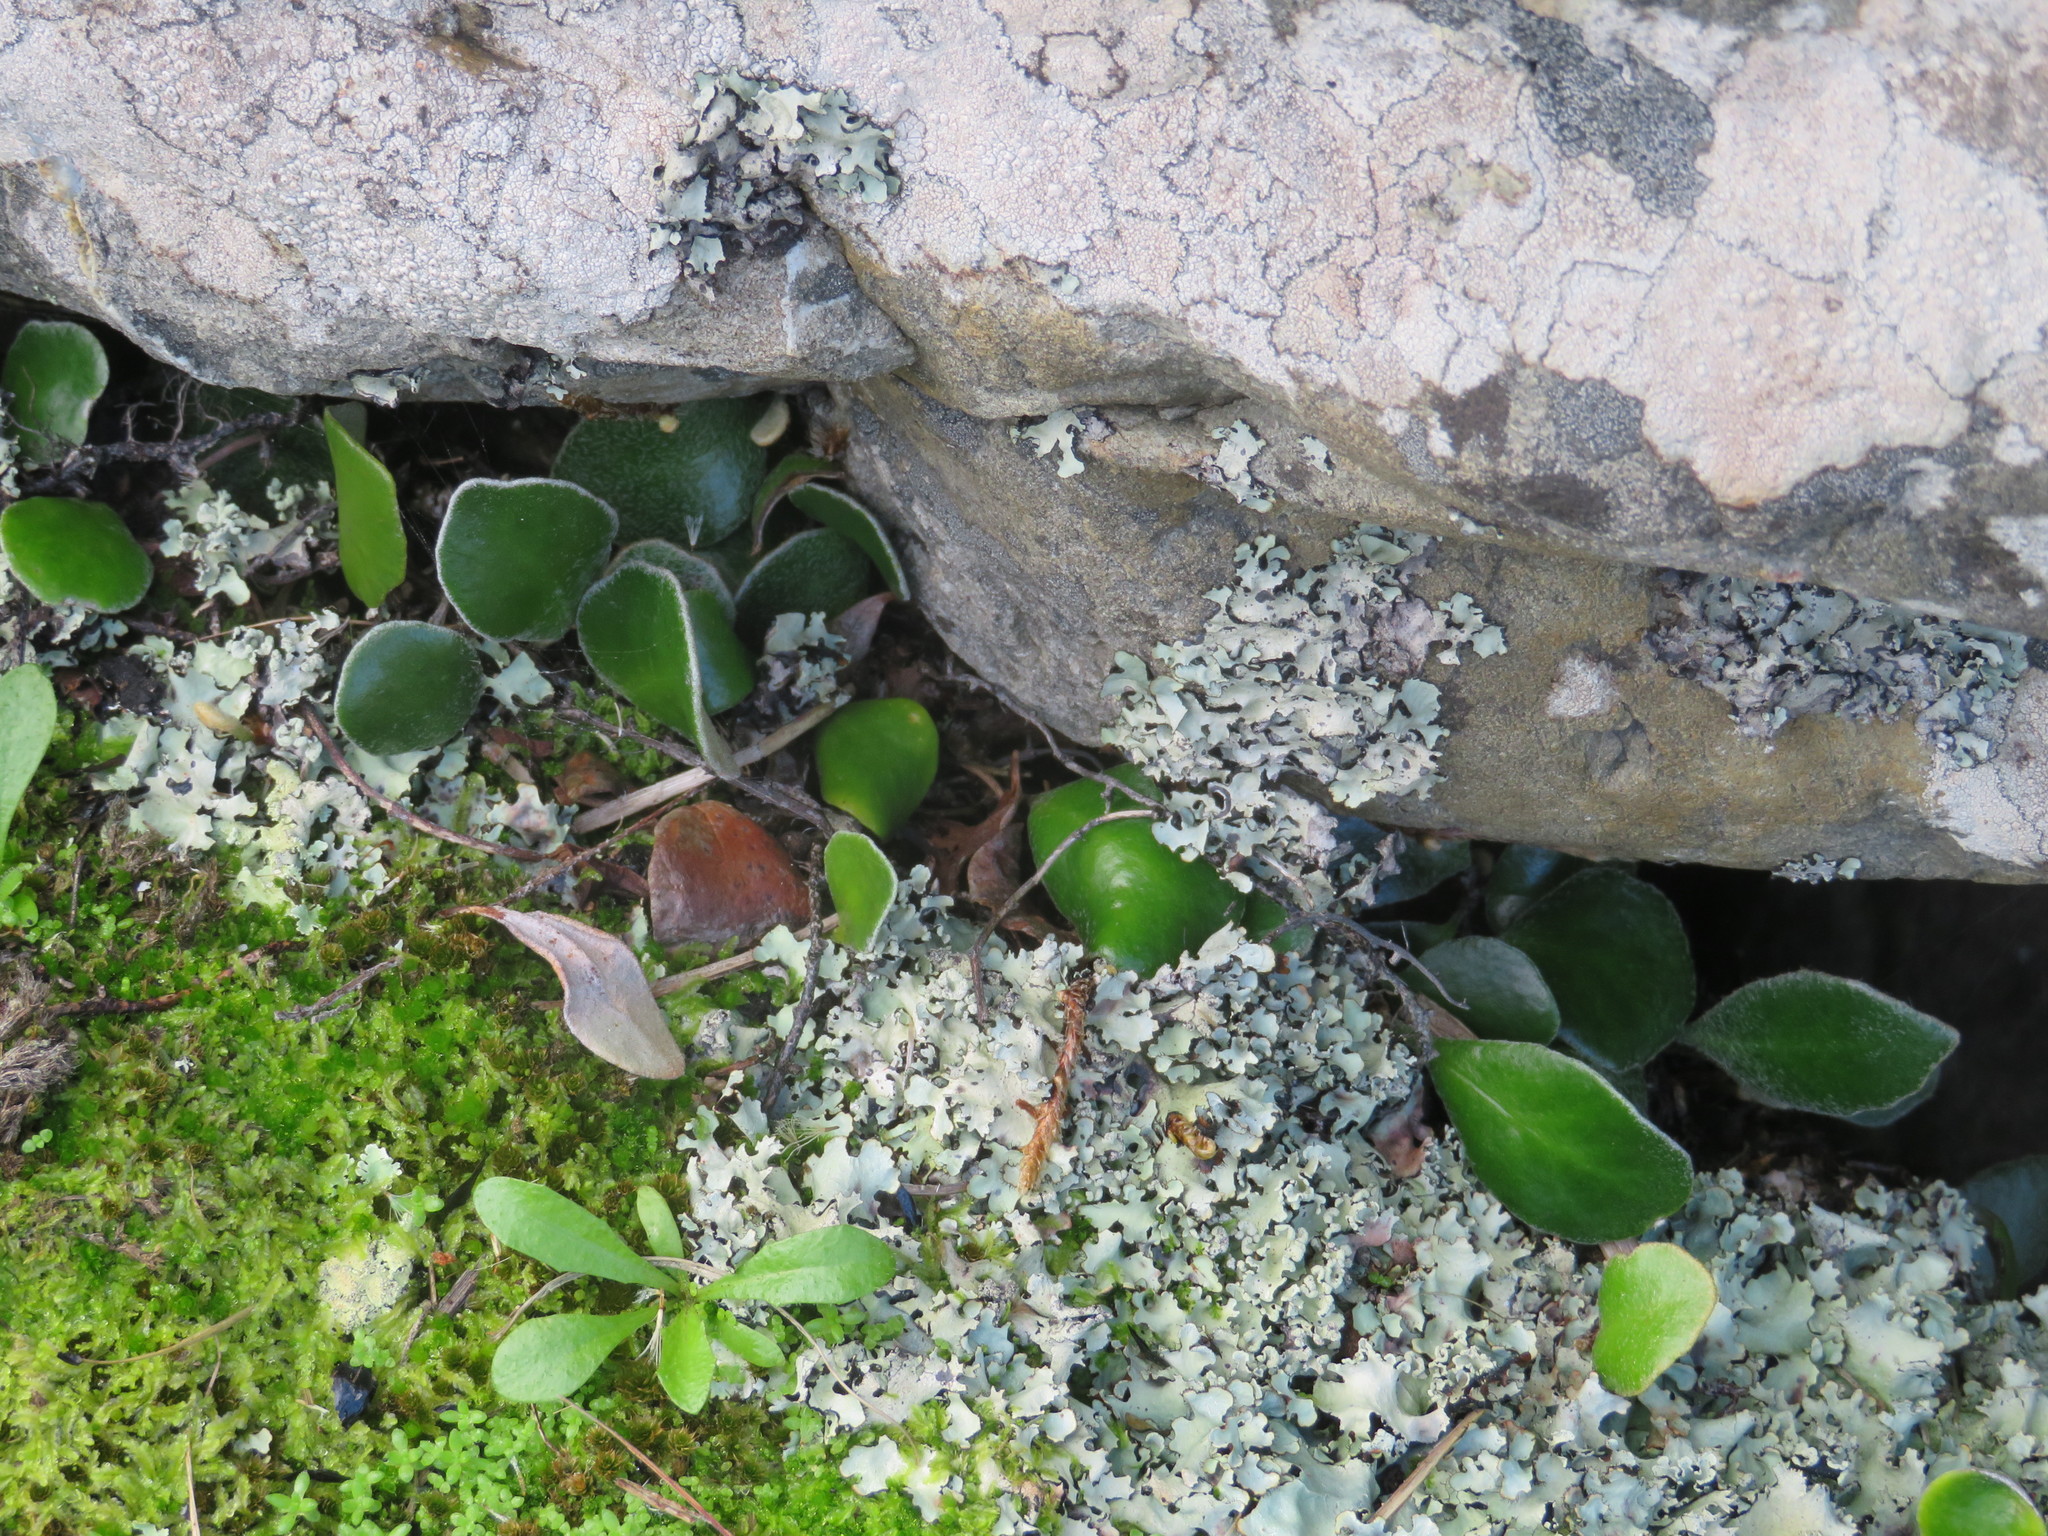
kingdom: Plantae
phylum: Tracheophyta
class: Polypodiopsida
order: Polypodiales
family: Polypodiaceae
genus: Pyrrosia
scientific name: Pyrrosia eleagnifolia
